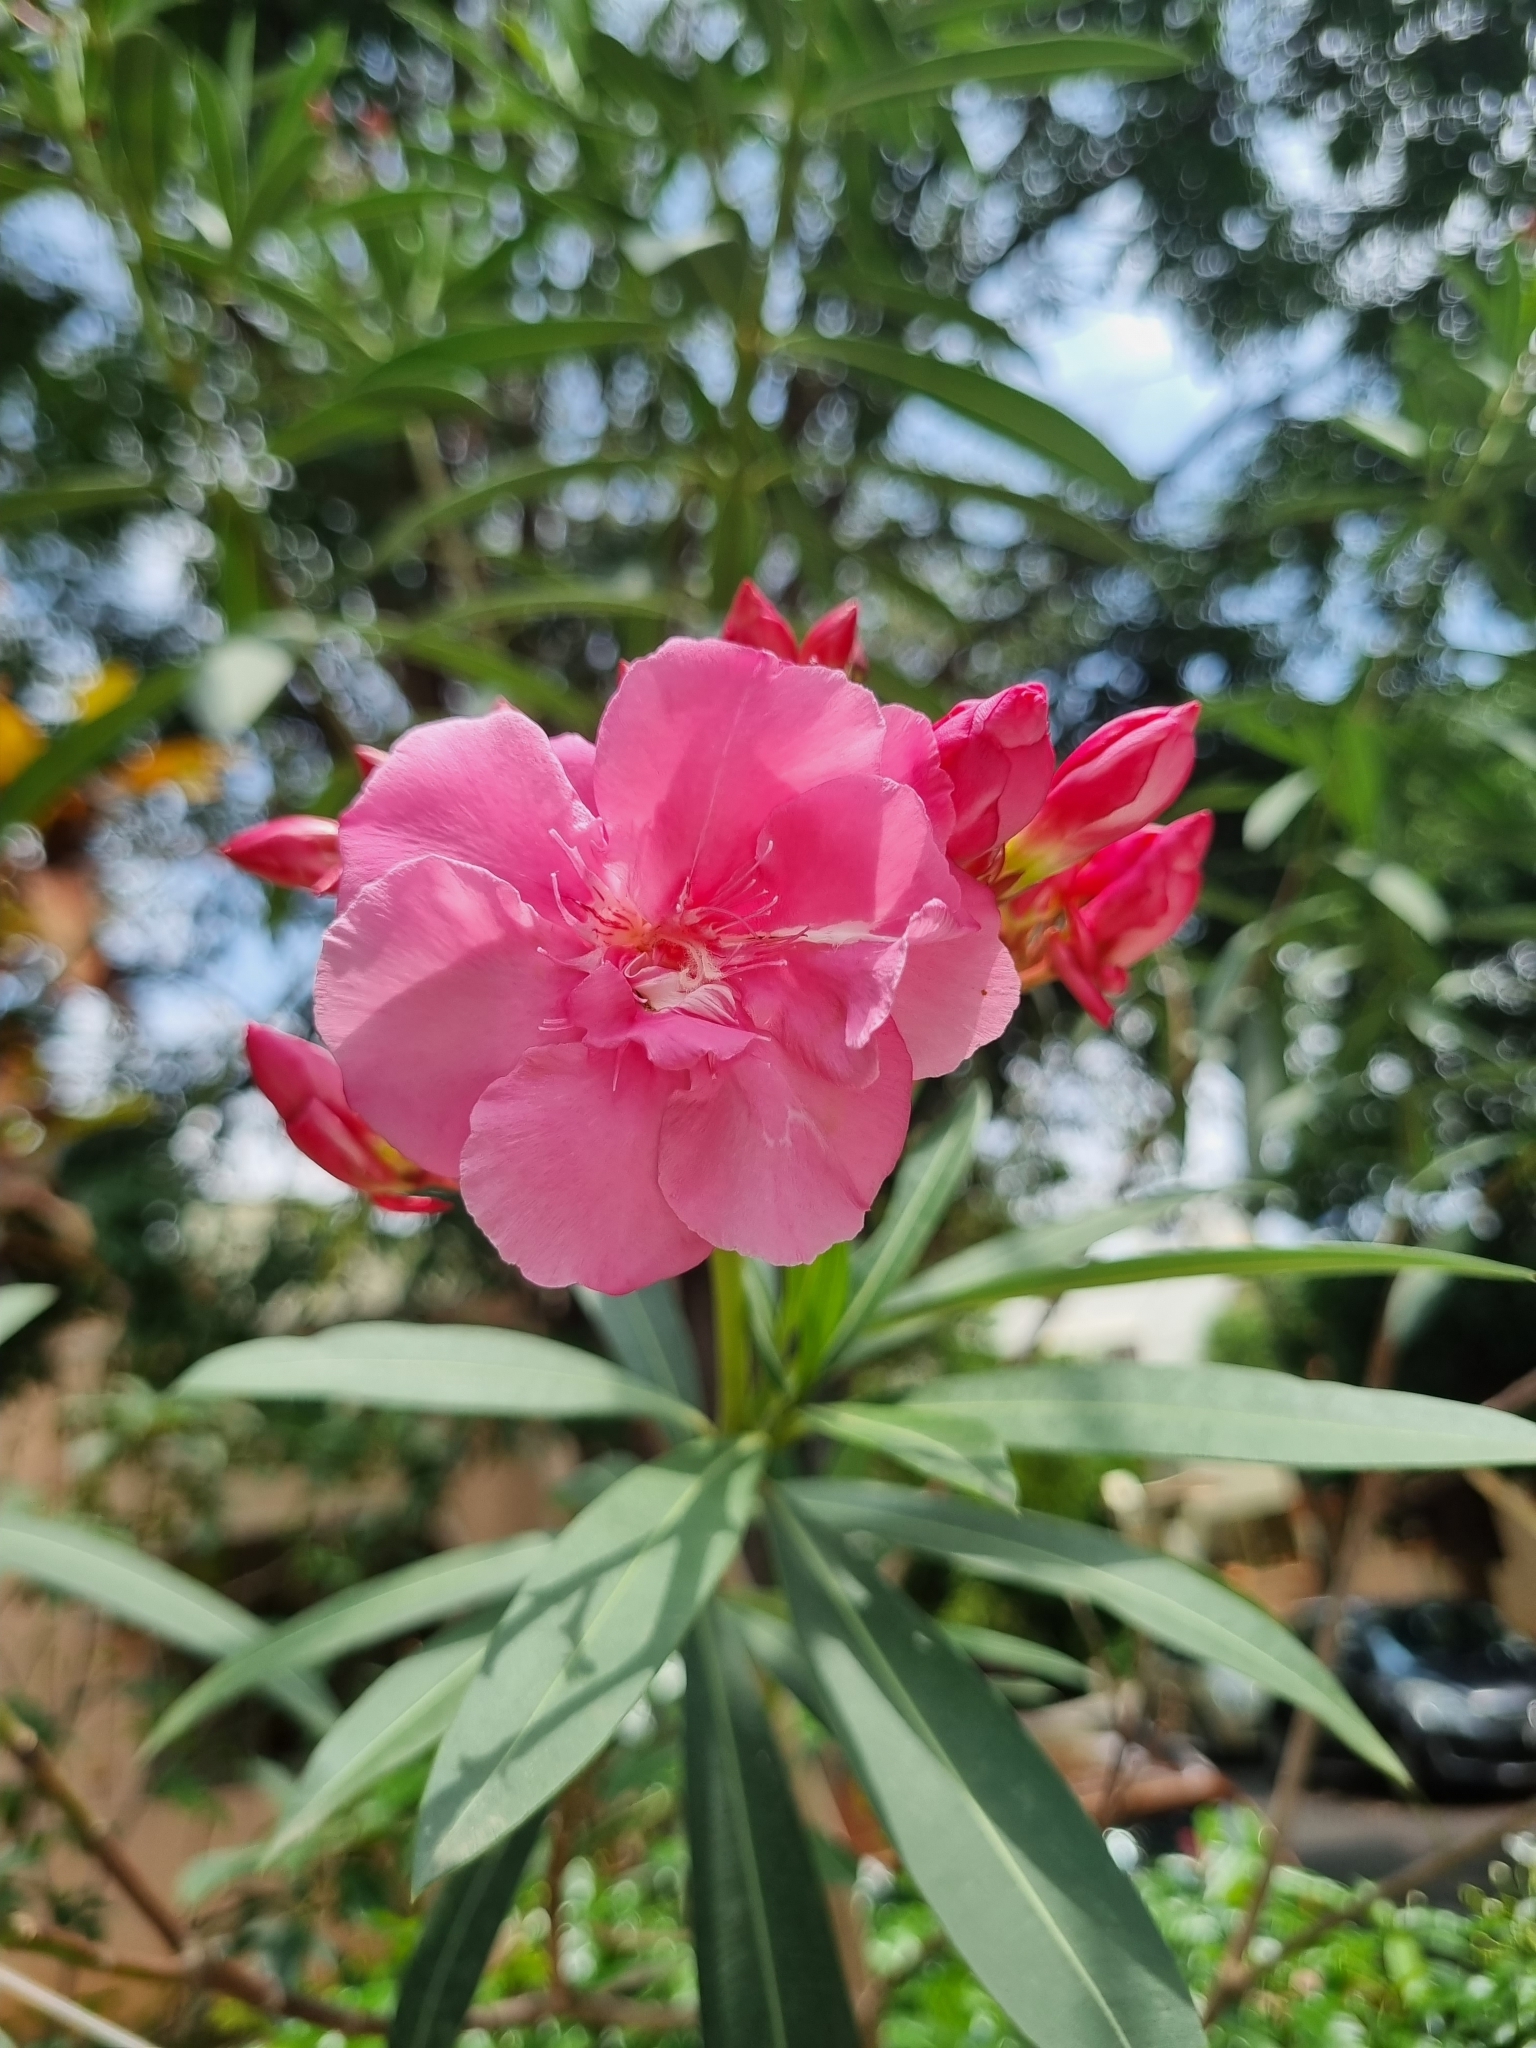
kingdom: Plantae
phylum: Tracheophyta
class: Magnoliopsida
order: Gentianales
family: Apocynaceae
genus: Nerium
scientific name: Nerium oleander
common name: Oleander
